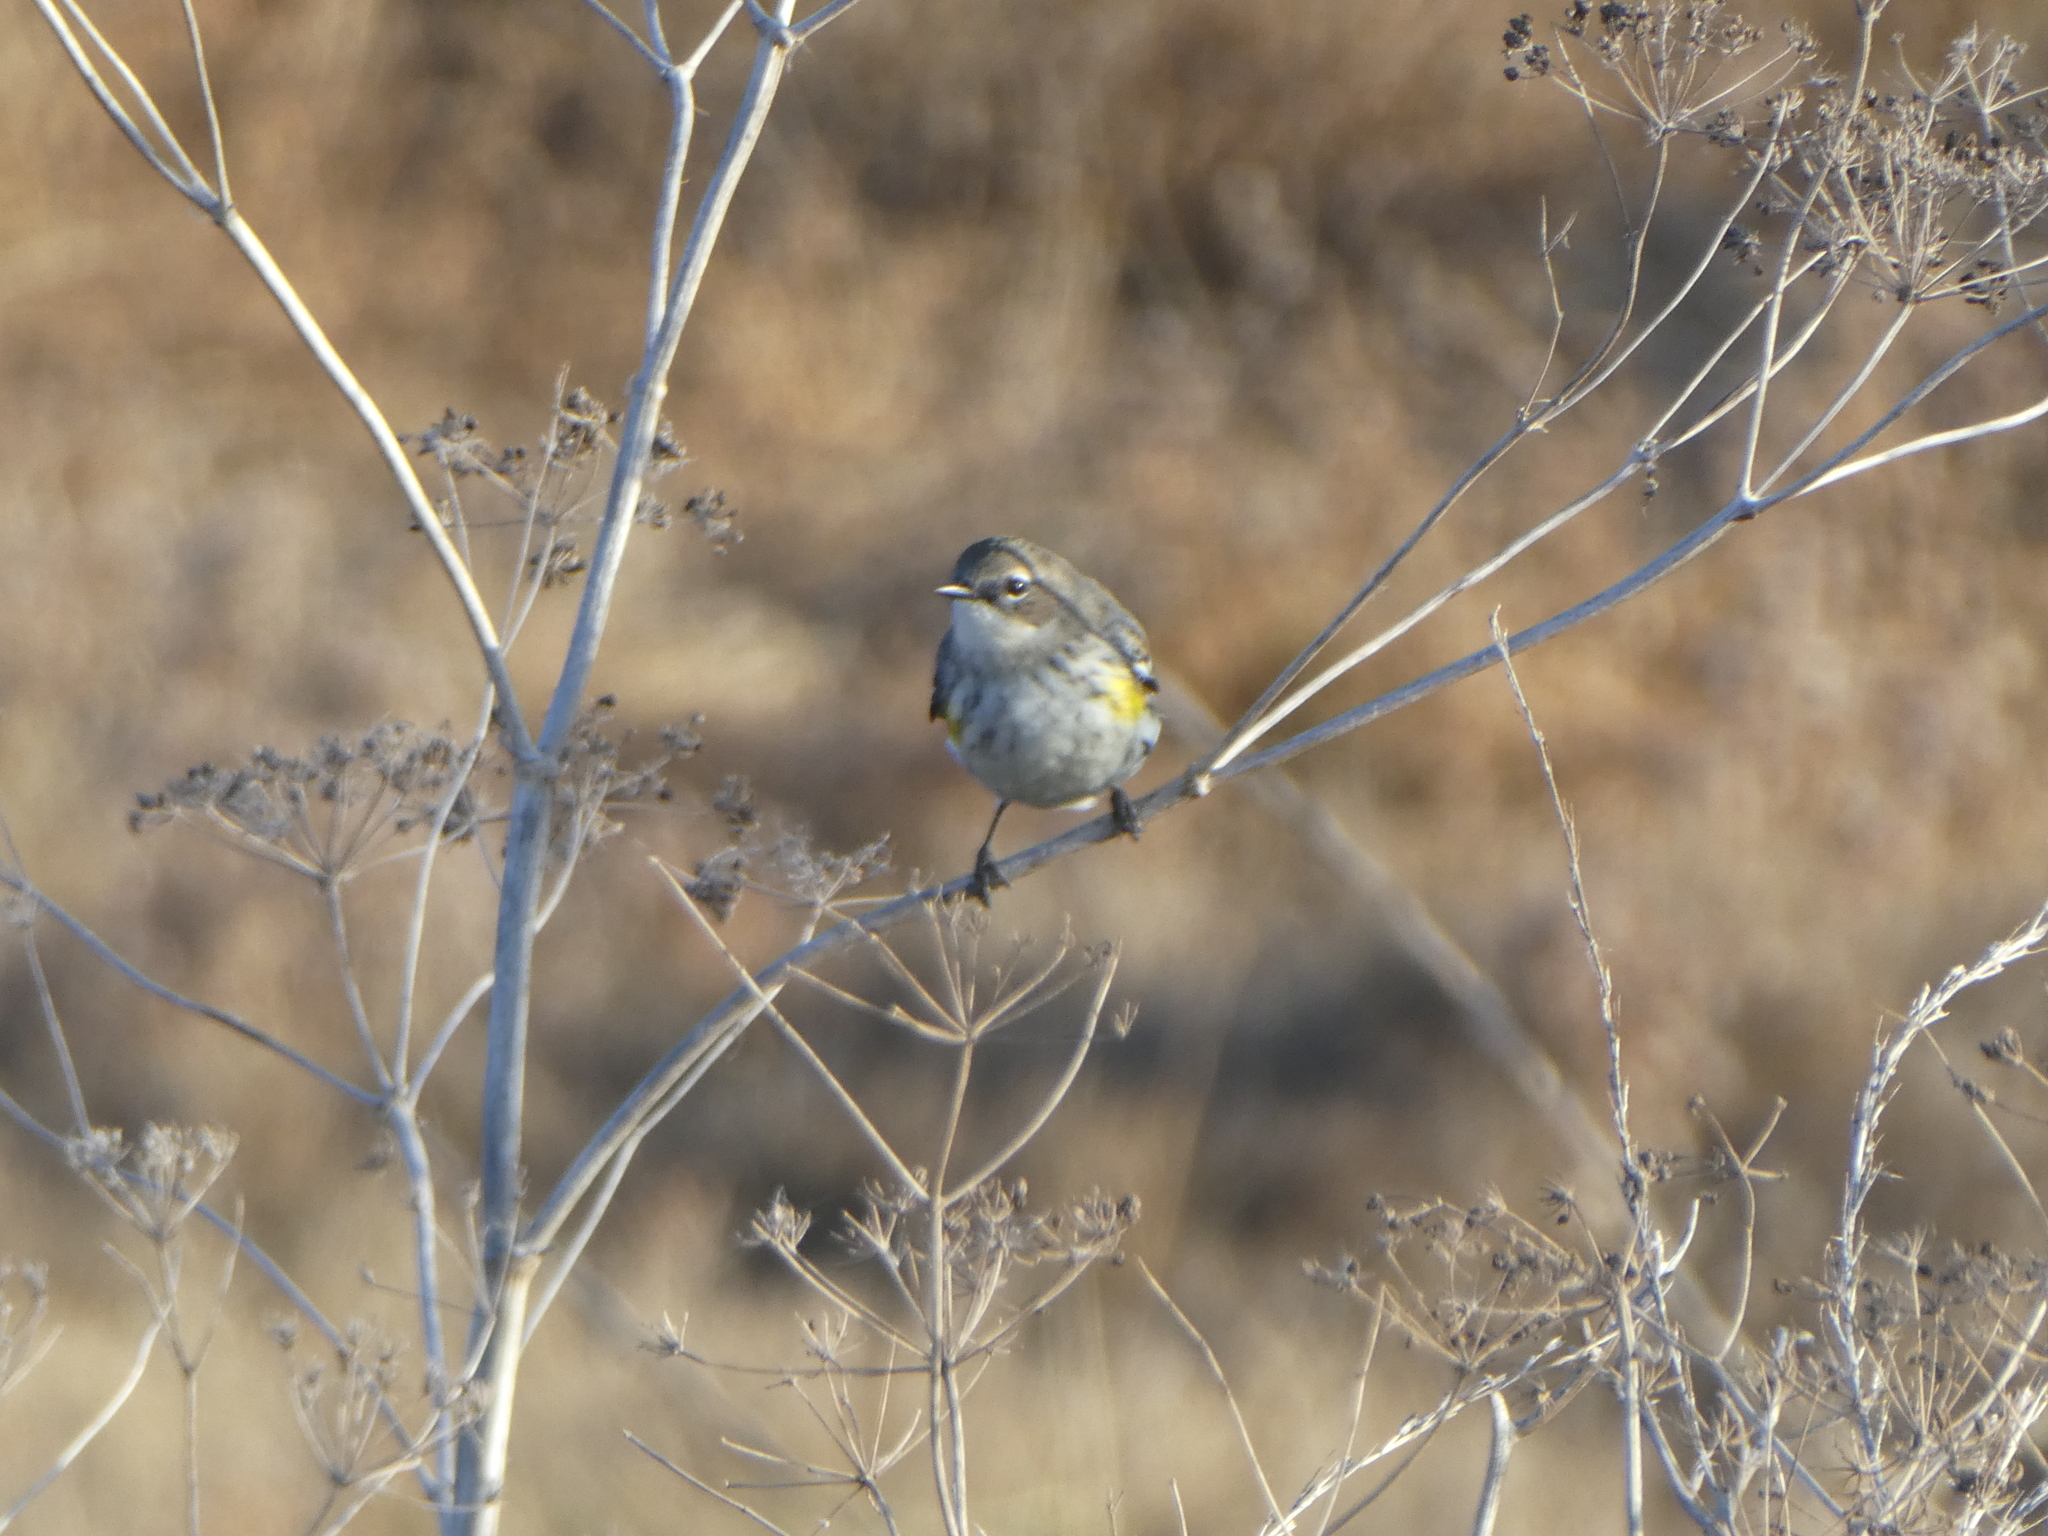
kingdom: Animalia
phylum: Chordata
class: Aves
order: Passeriformes
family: Parulidae
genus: Setophaga
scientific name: Setophaga coronata
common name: Myrtle warbler
